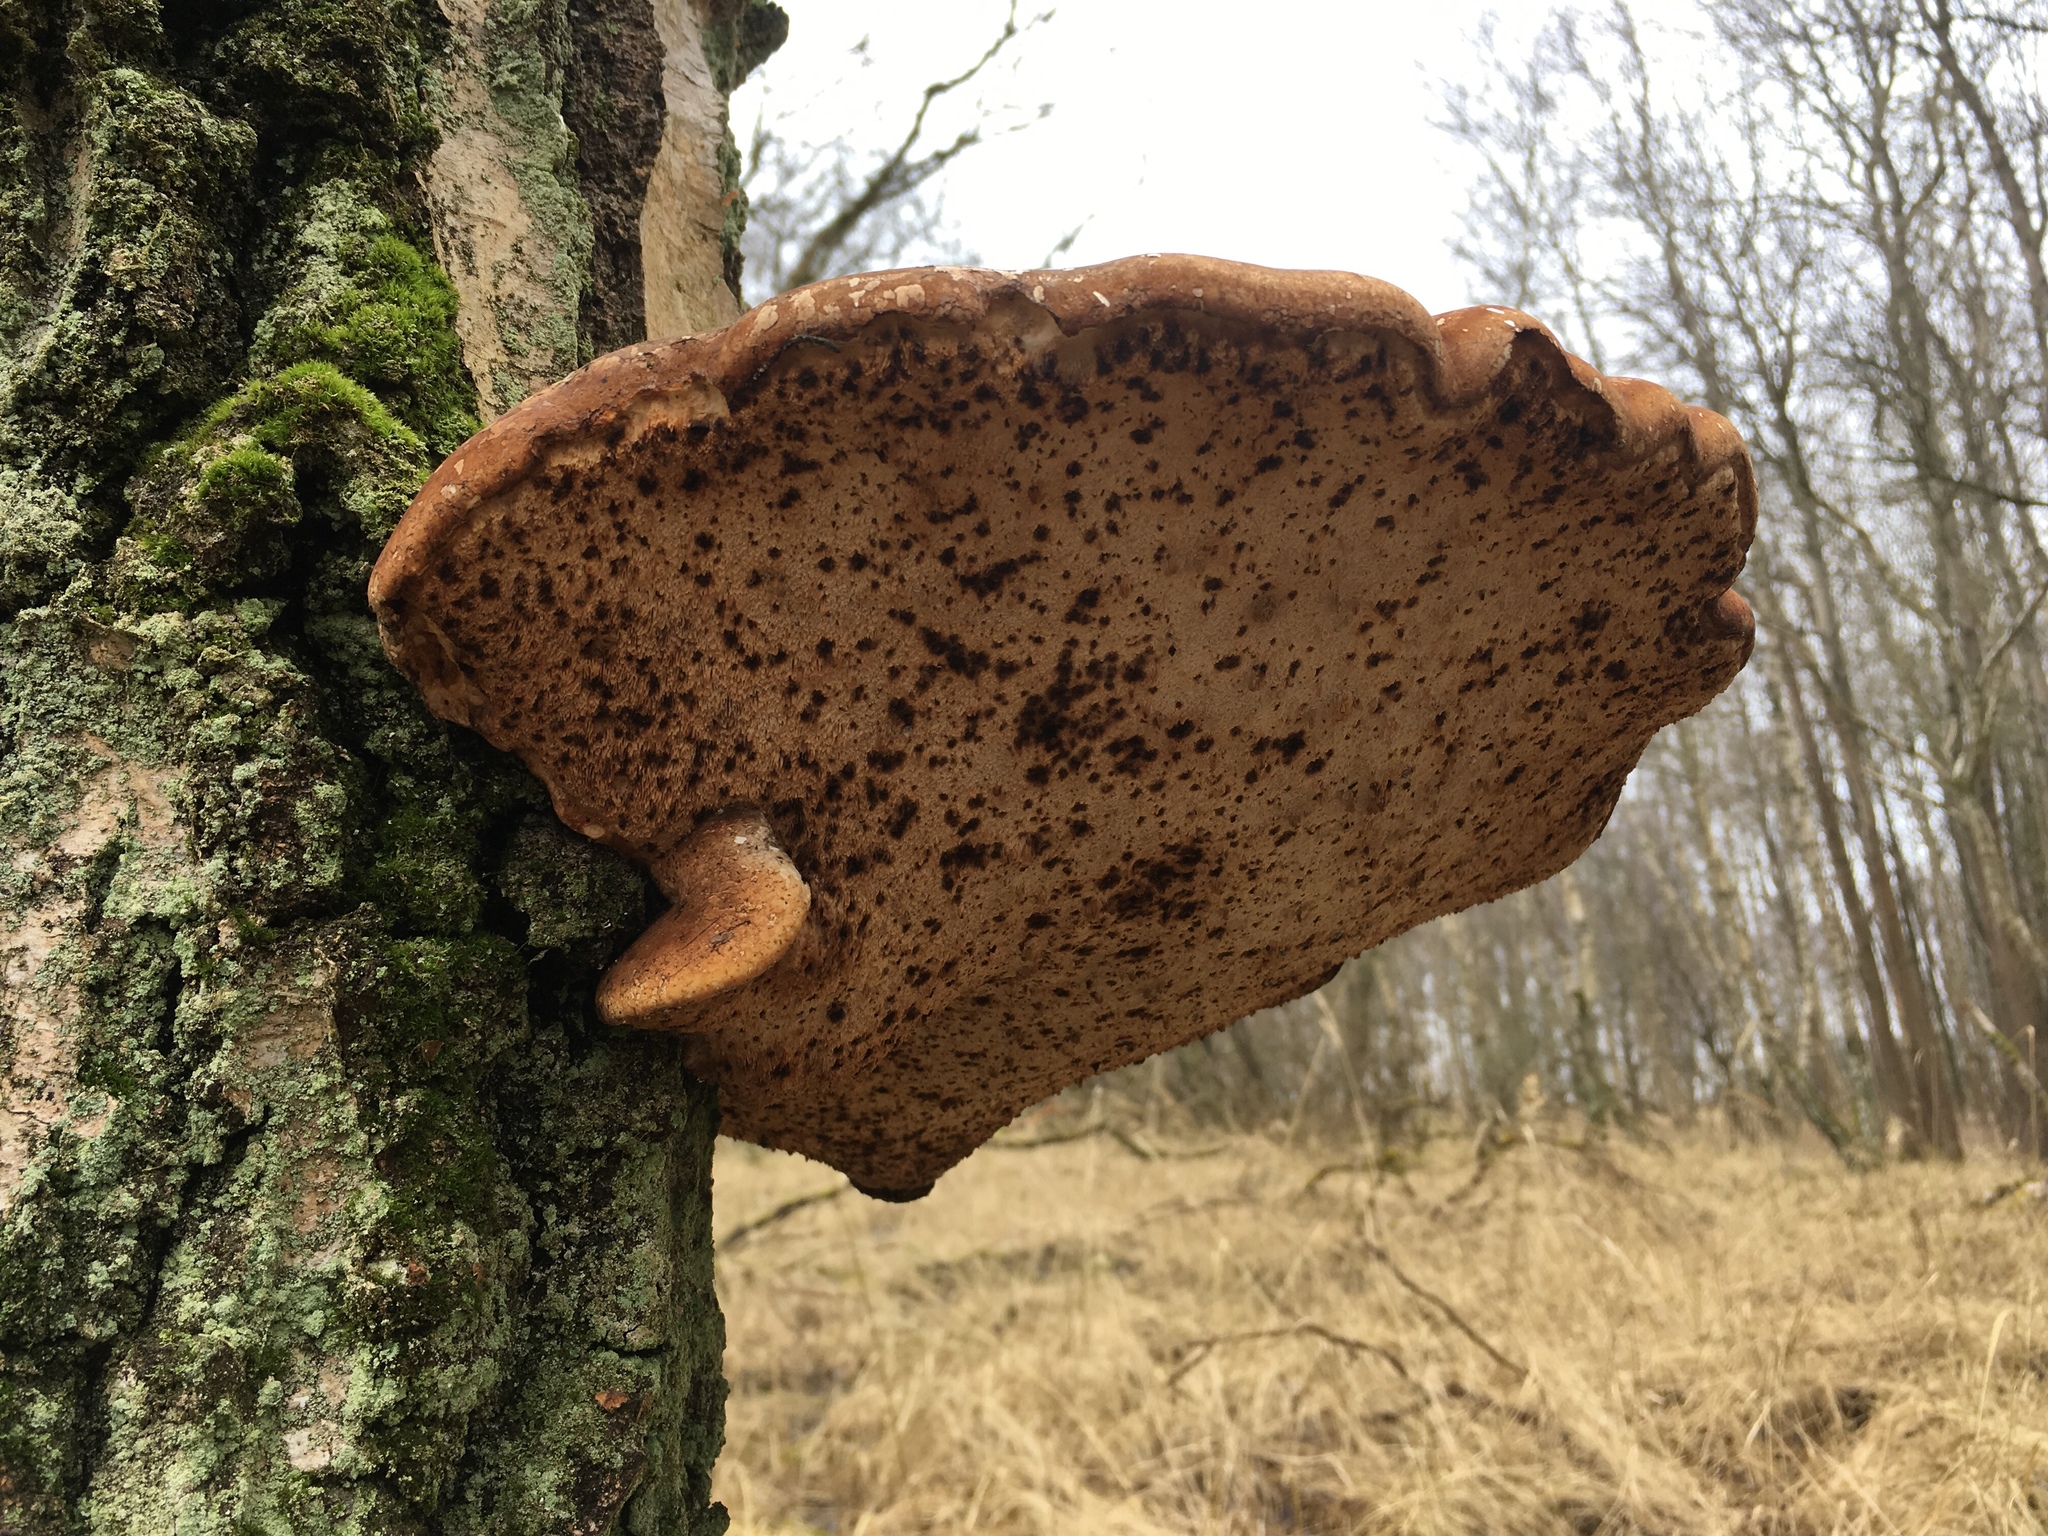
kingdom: Fungi
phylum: Basidiomycota
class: Agaricomycetes
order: Polyporales
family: Fomitopsidaceae
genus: Fomitopsis
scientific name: Fomitopsis betulina
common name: Birch polypore
